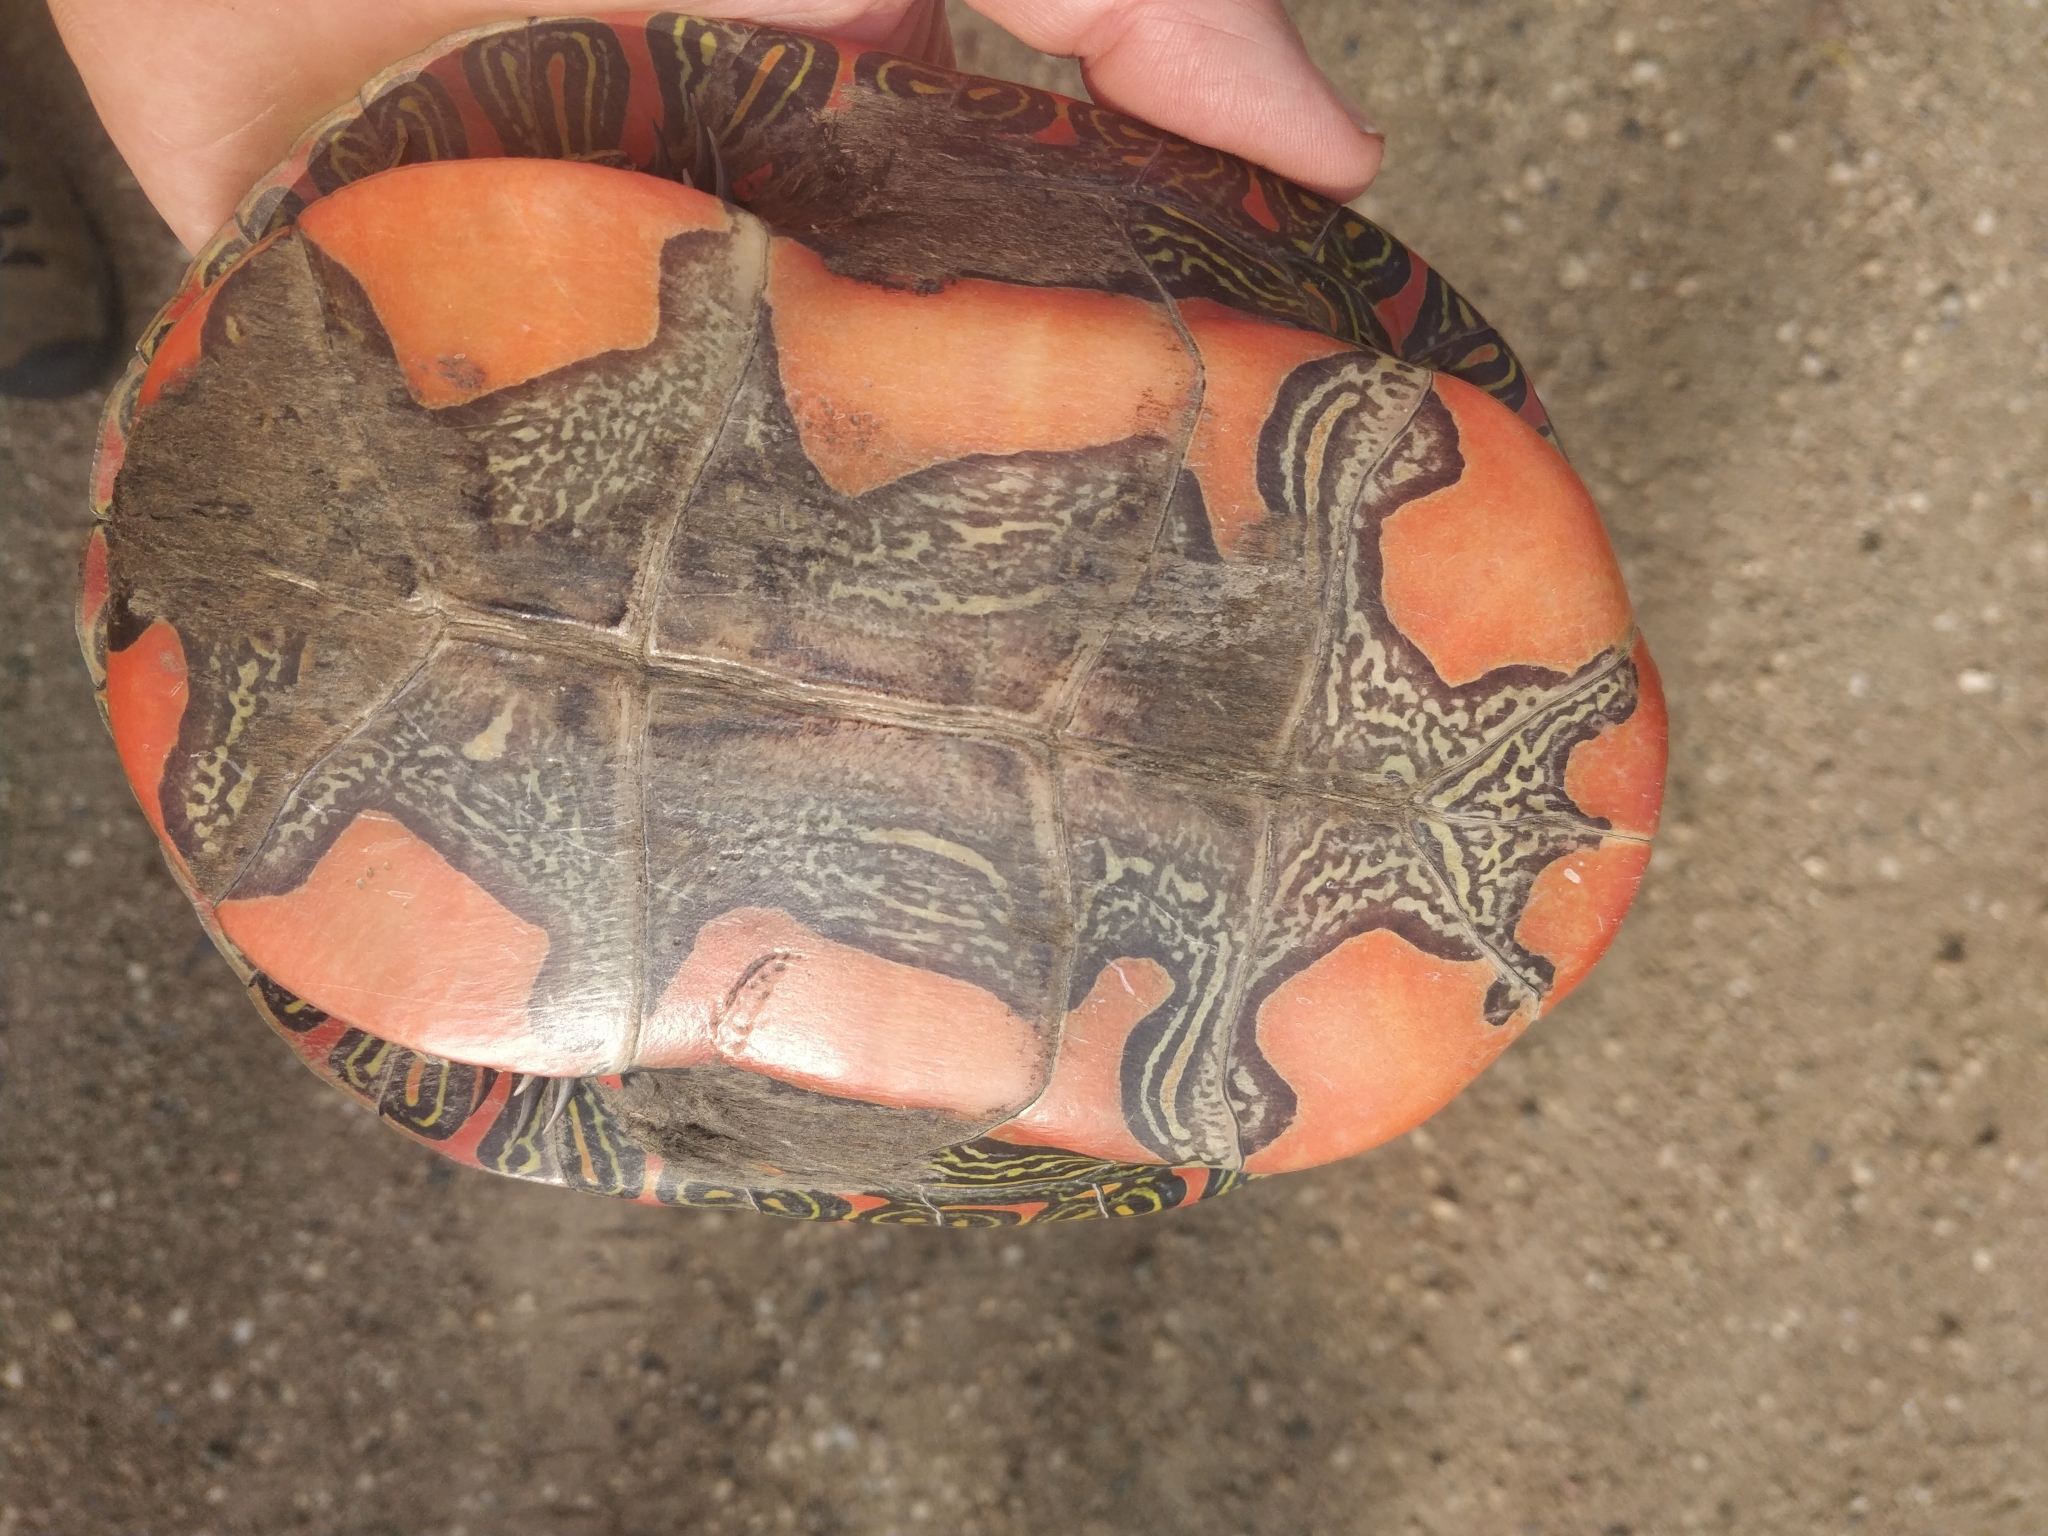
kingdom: Animalia
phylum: Chordata
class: Testudines
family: Emydidae
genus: Chrysemys
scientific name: Chrysemys picta
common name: Painted turtle
